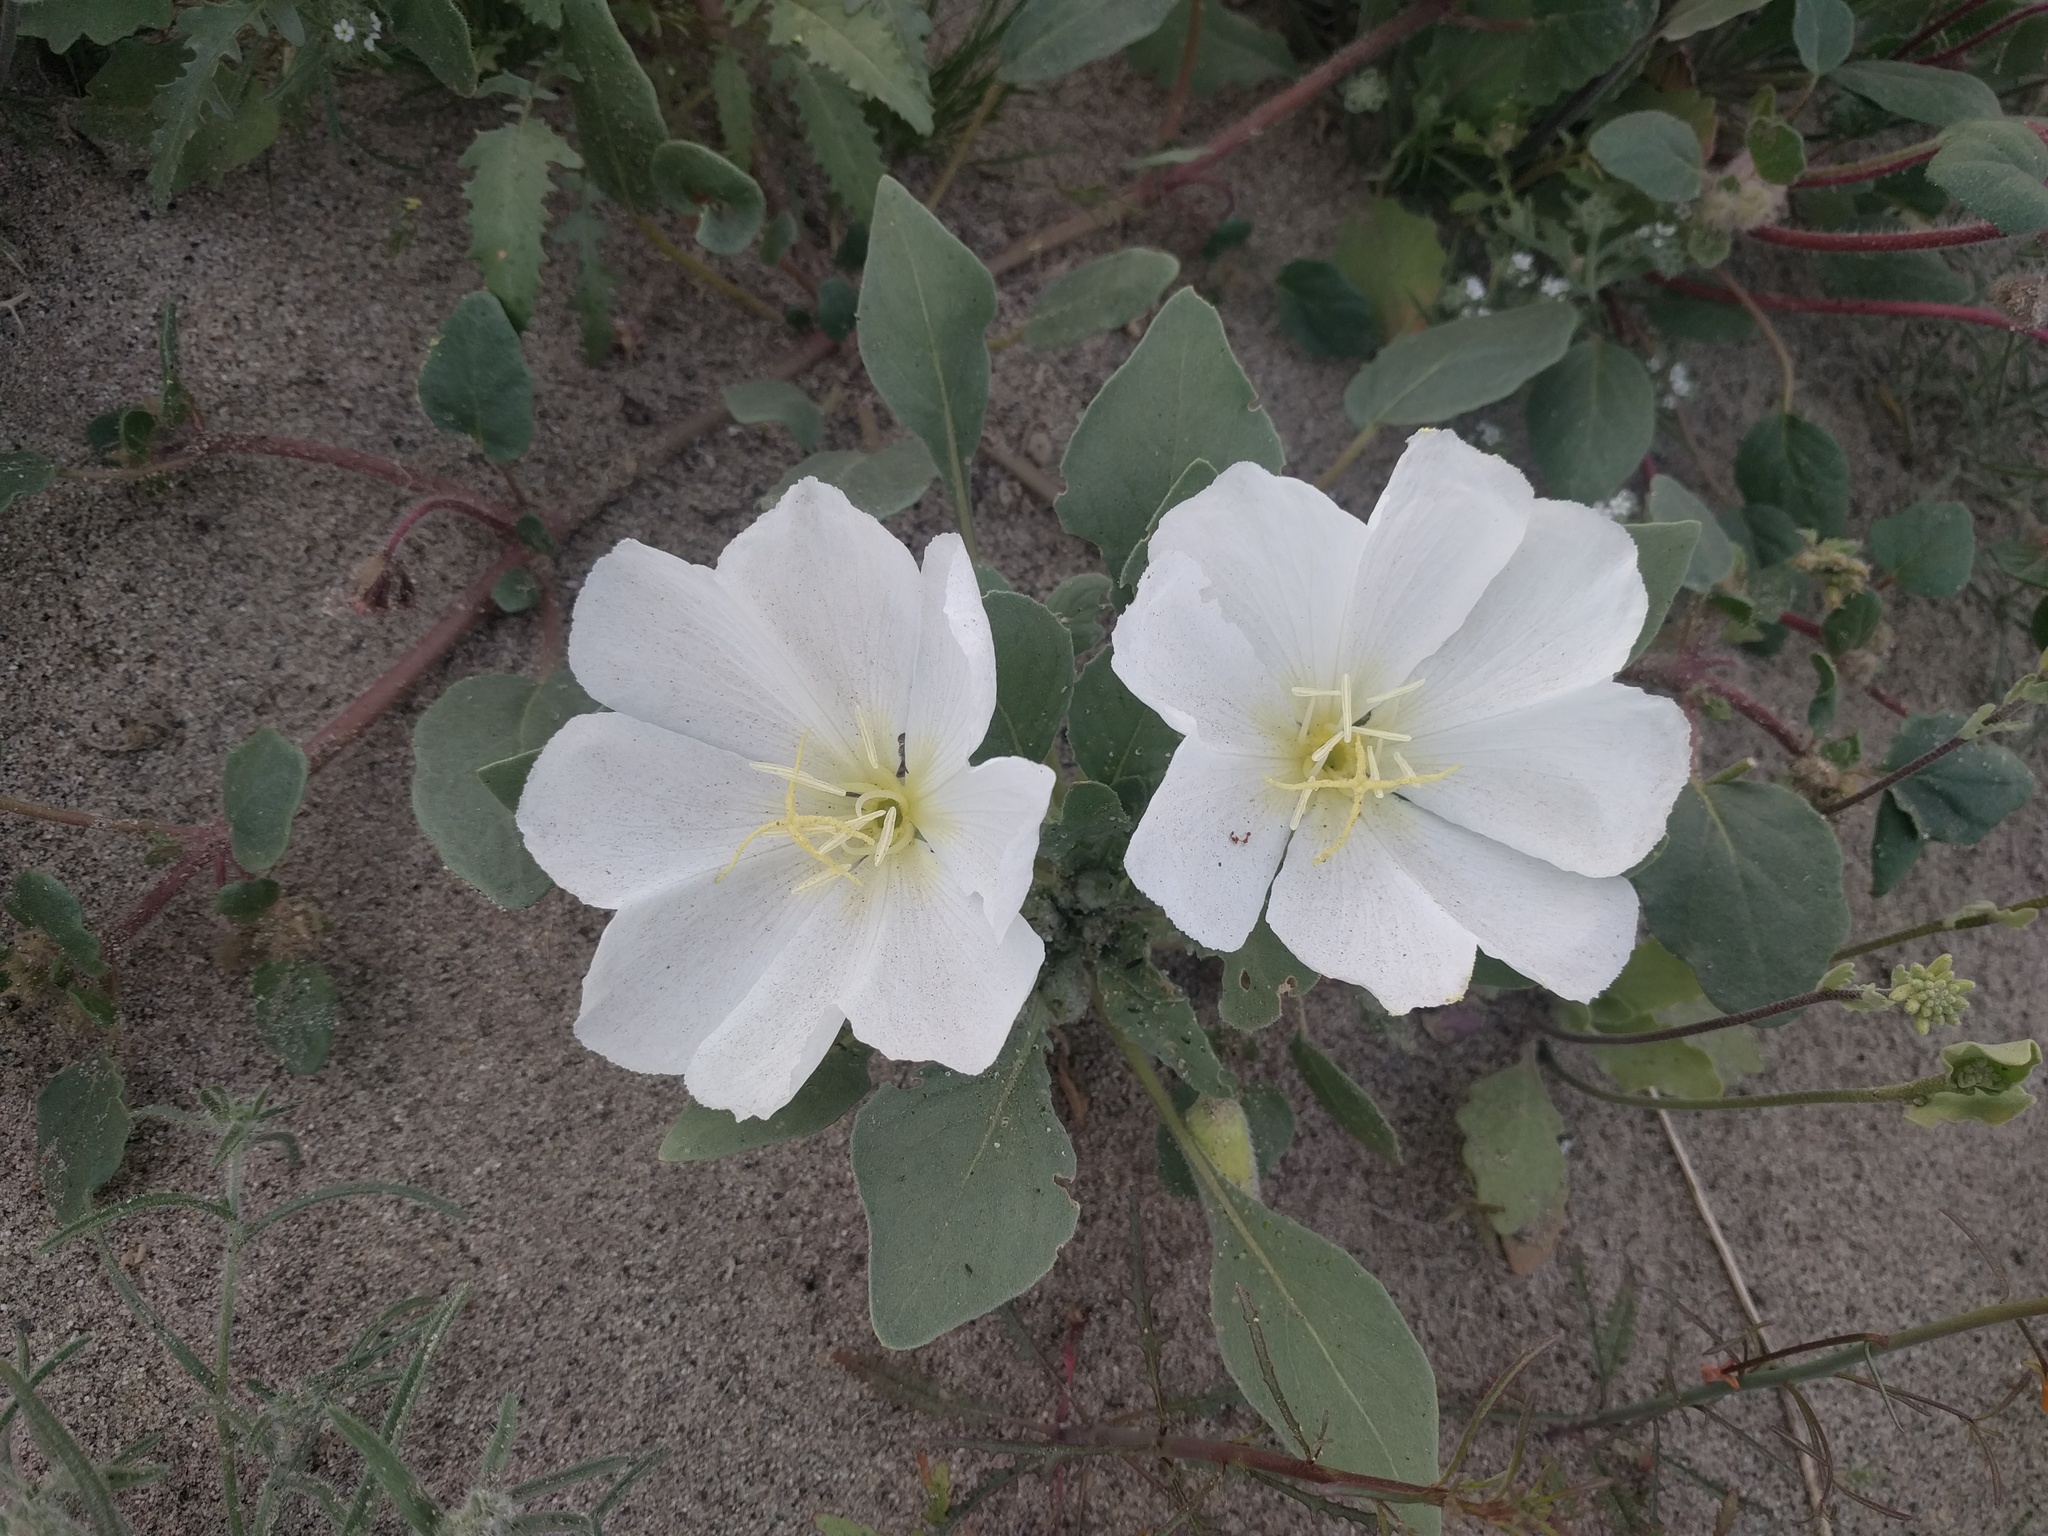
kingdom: Plantae
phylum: Tracheophyta
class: Magnoliopsida
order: Myrtales
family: Onagraceae
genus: Oenothera
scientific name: Oenothera deltoides
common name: Basket evening-primrose
